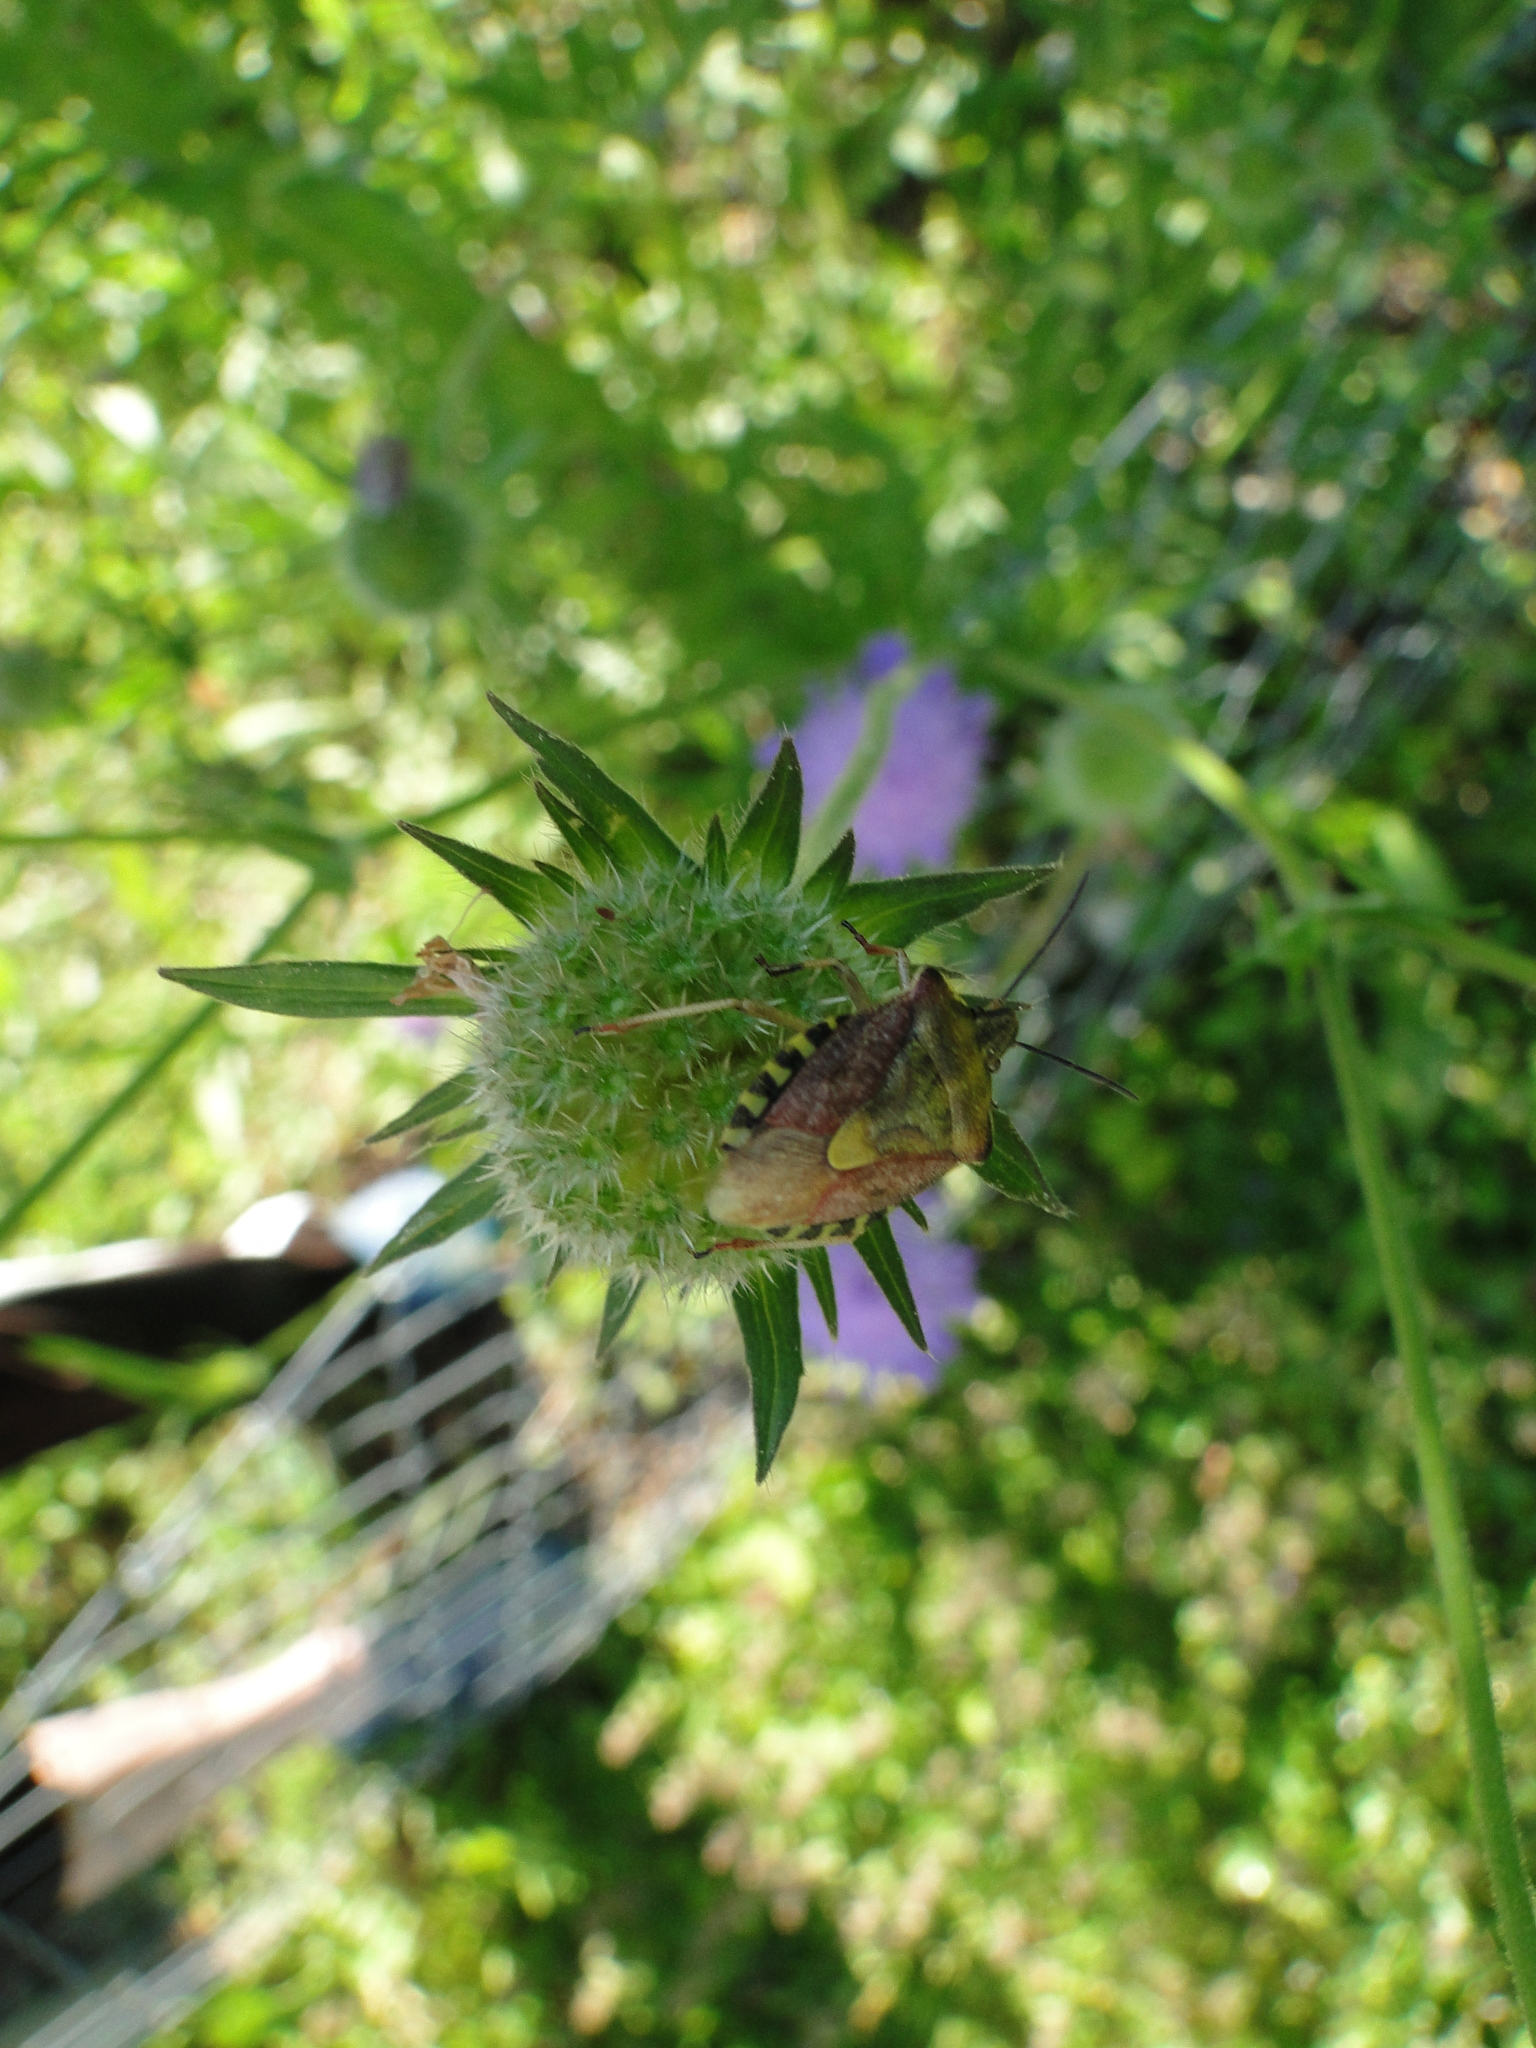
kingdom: Animalia
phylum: Arthropoda
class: Insecta
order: Hemiptera
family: Pentatomidae
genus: Carpocoris
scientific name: Carpocoris purpureipennis
